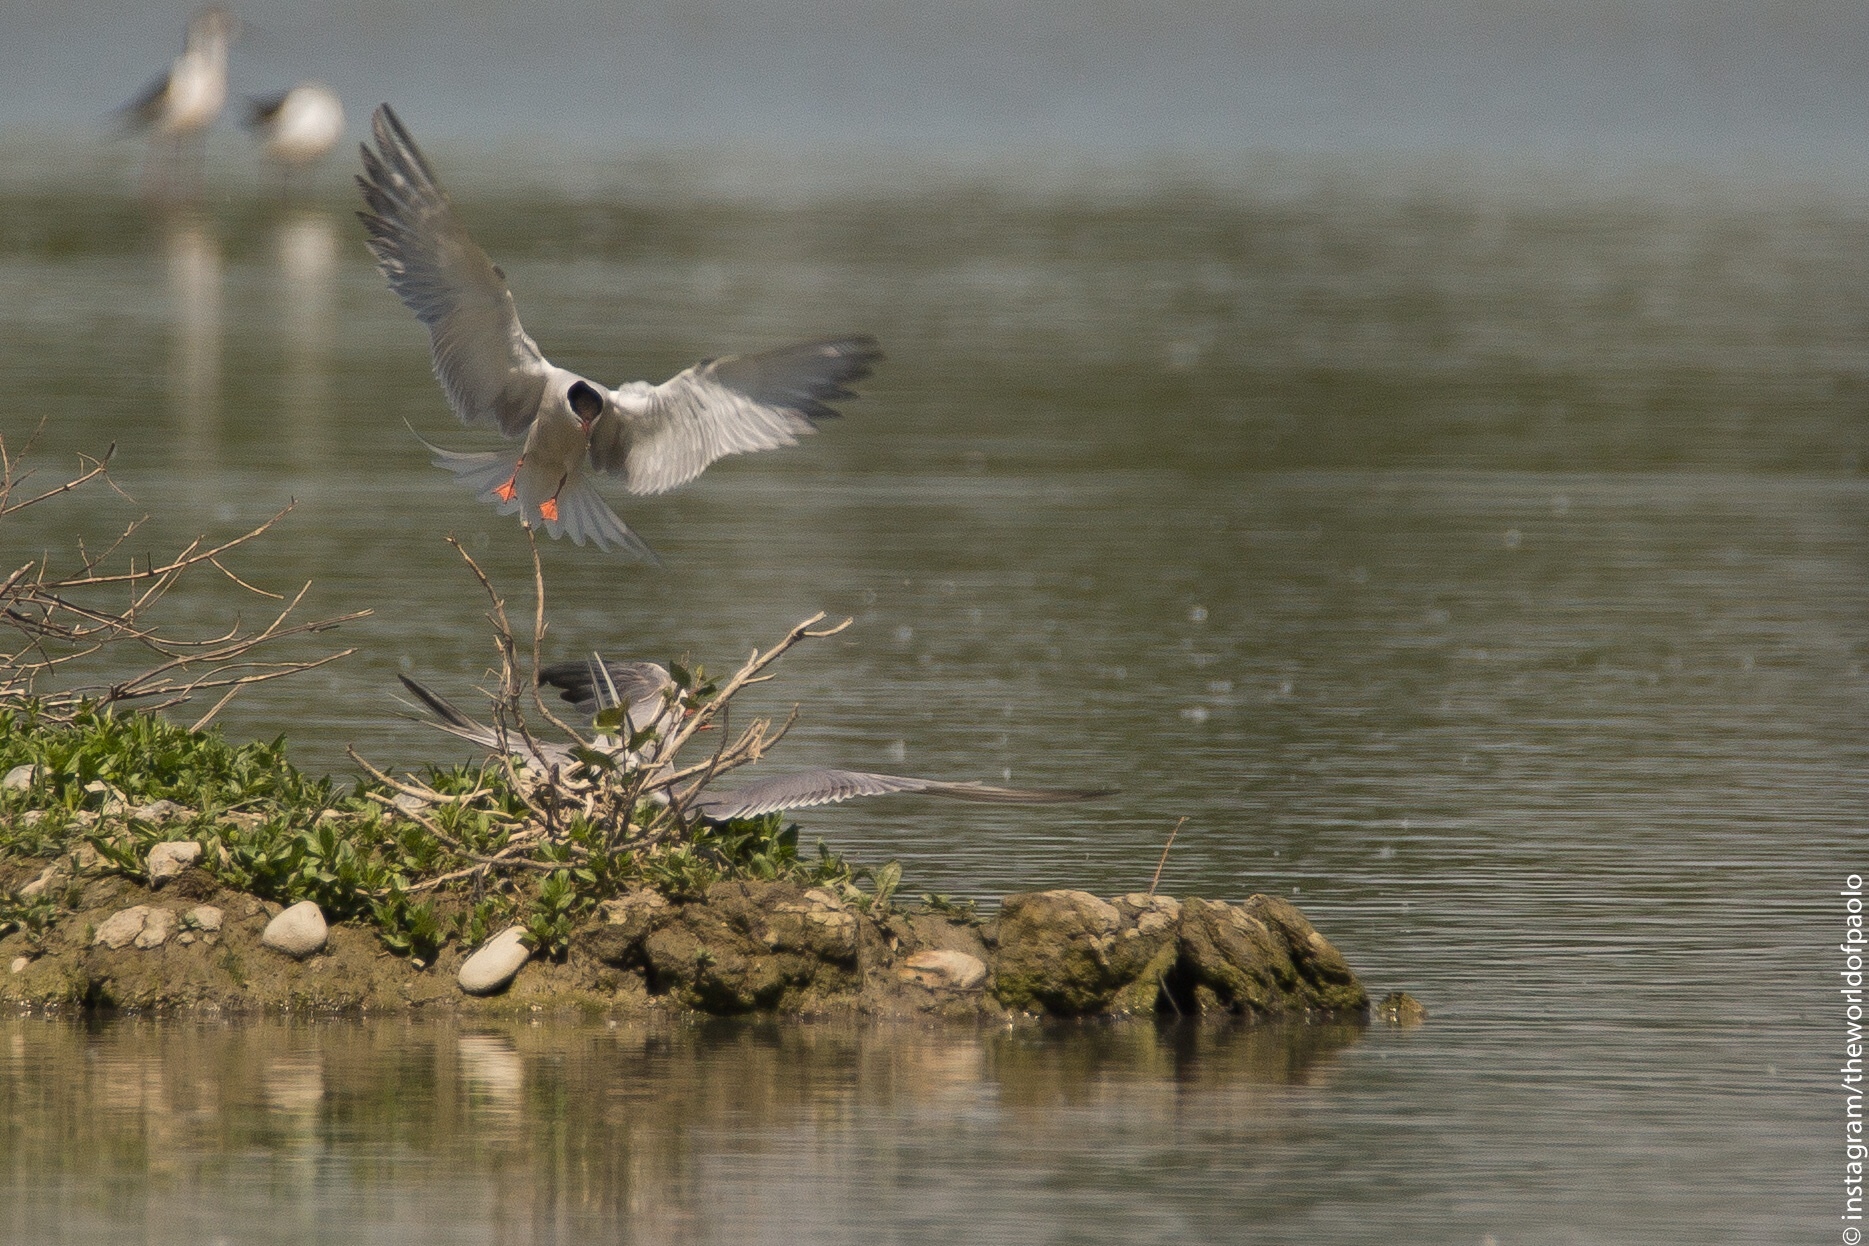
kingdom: Animalia
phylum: Chordata
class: Aves
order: Charadriiformes
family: Laridae
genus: Sterna
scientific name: Sterna hirundo
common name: Common tern
